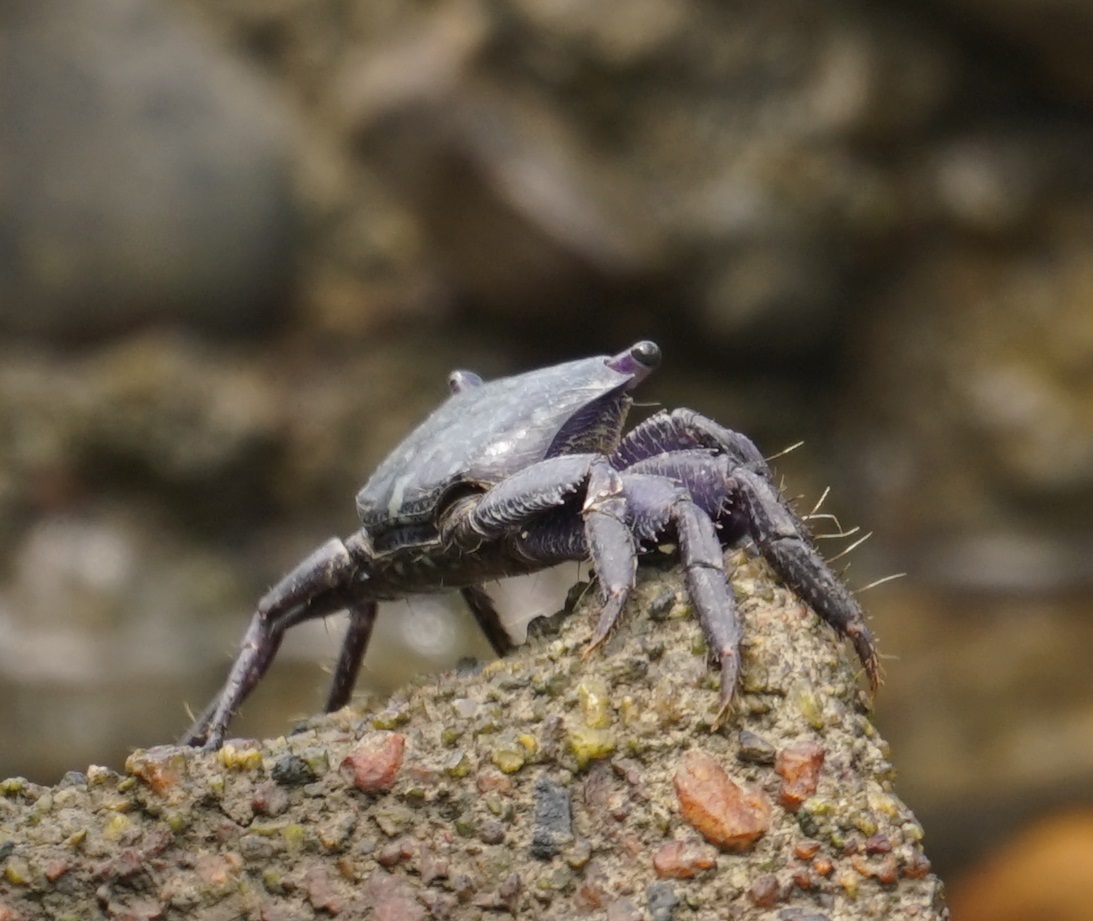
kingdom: Animalia
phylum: Arthropoda
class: Malacostraca
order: Decapoda
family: Grapsidae
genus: Metopograpsus
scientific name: Metopograpsus frontalis
